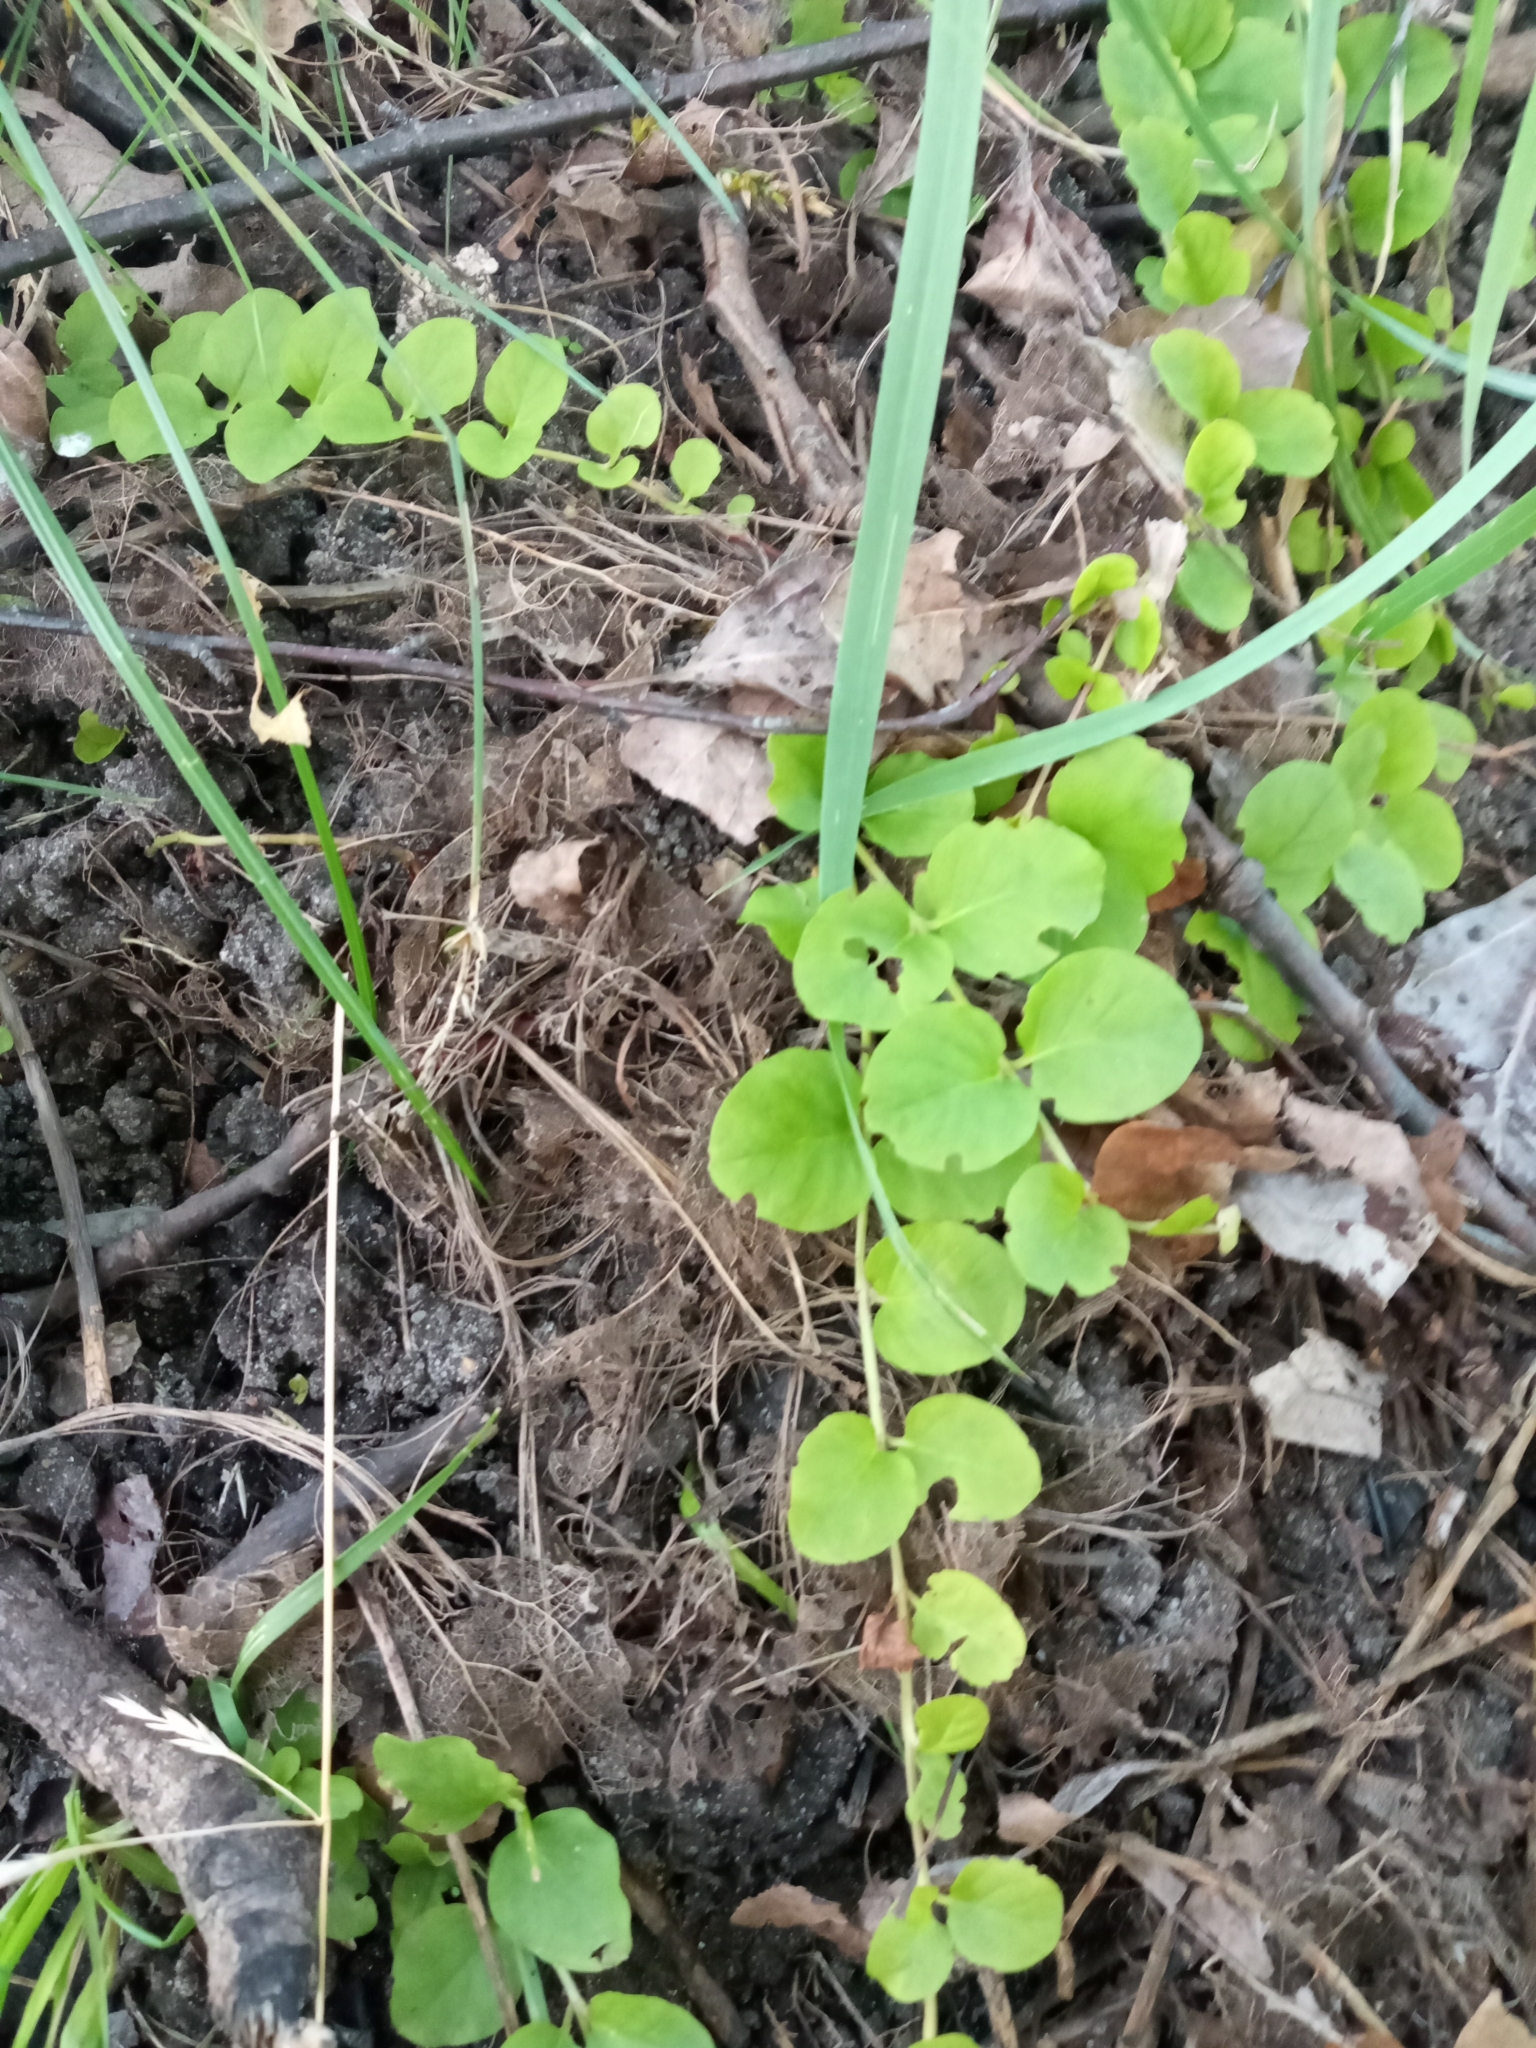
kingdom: Plantae
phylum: Tracheophyta
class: Magnoliopsida
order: Ericales
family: Primulaceae
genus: Lysimachia
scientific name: Lysimachia nummularia
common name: Moneywort
